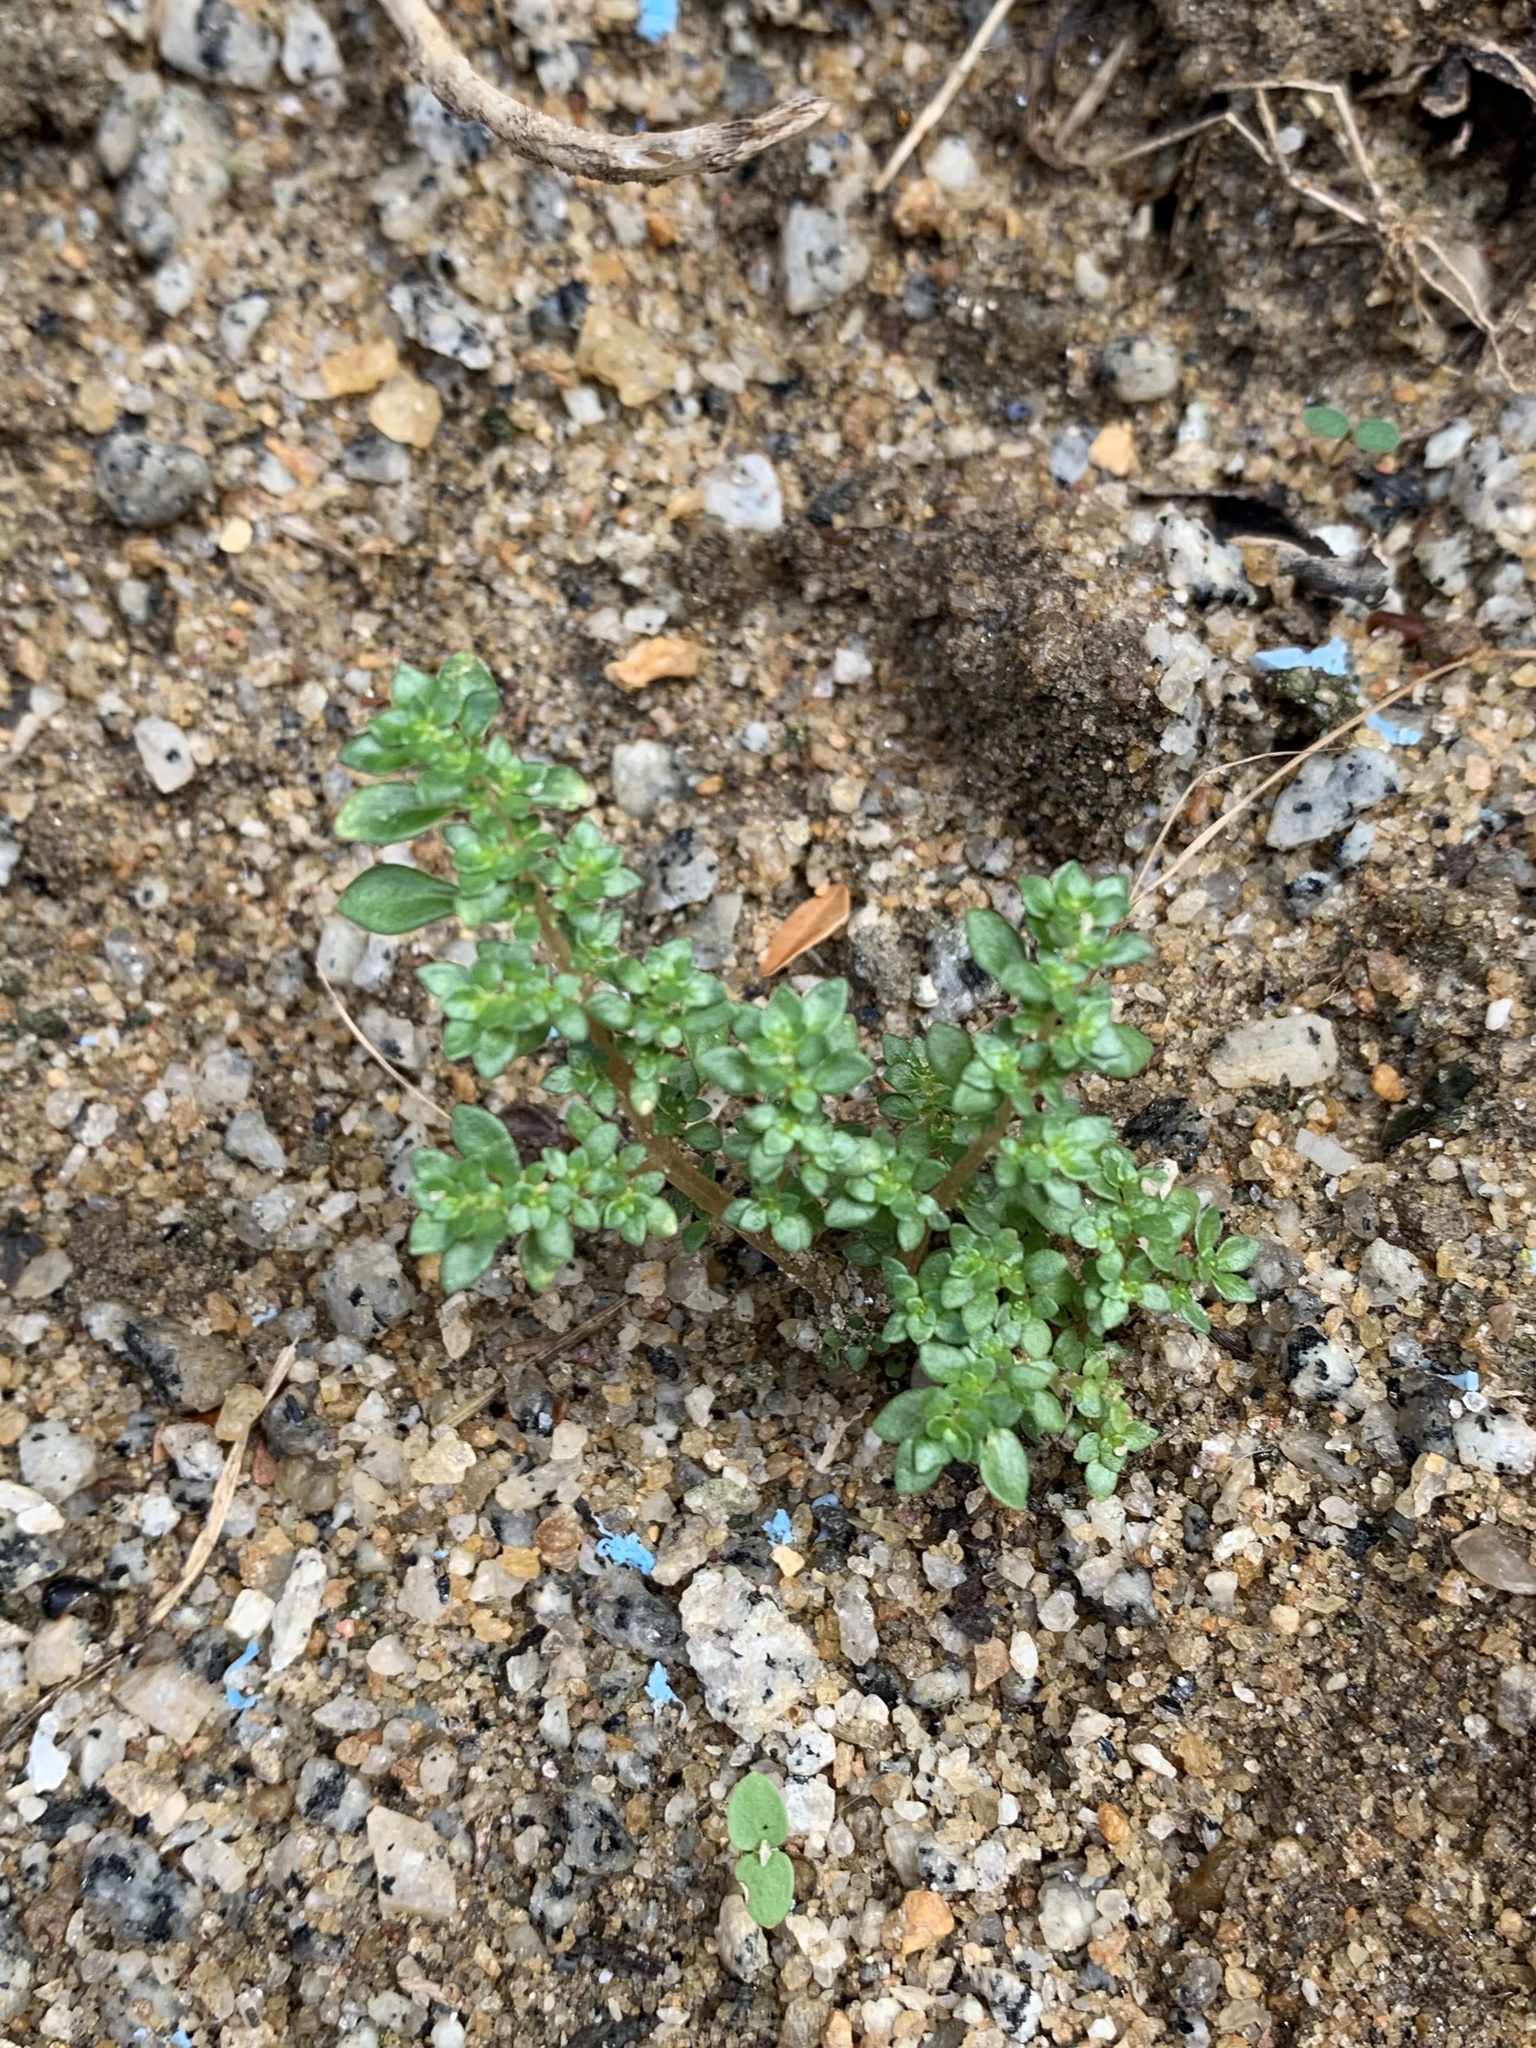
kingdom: Plantae
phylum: Tracheophyta
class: Magnoliopsida
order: Rosales
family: Urticaceae
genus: Pilea
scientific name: Pilea microphylla
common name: Artillery-plant
